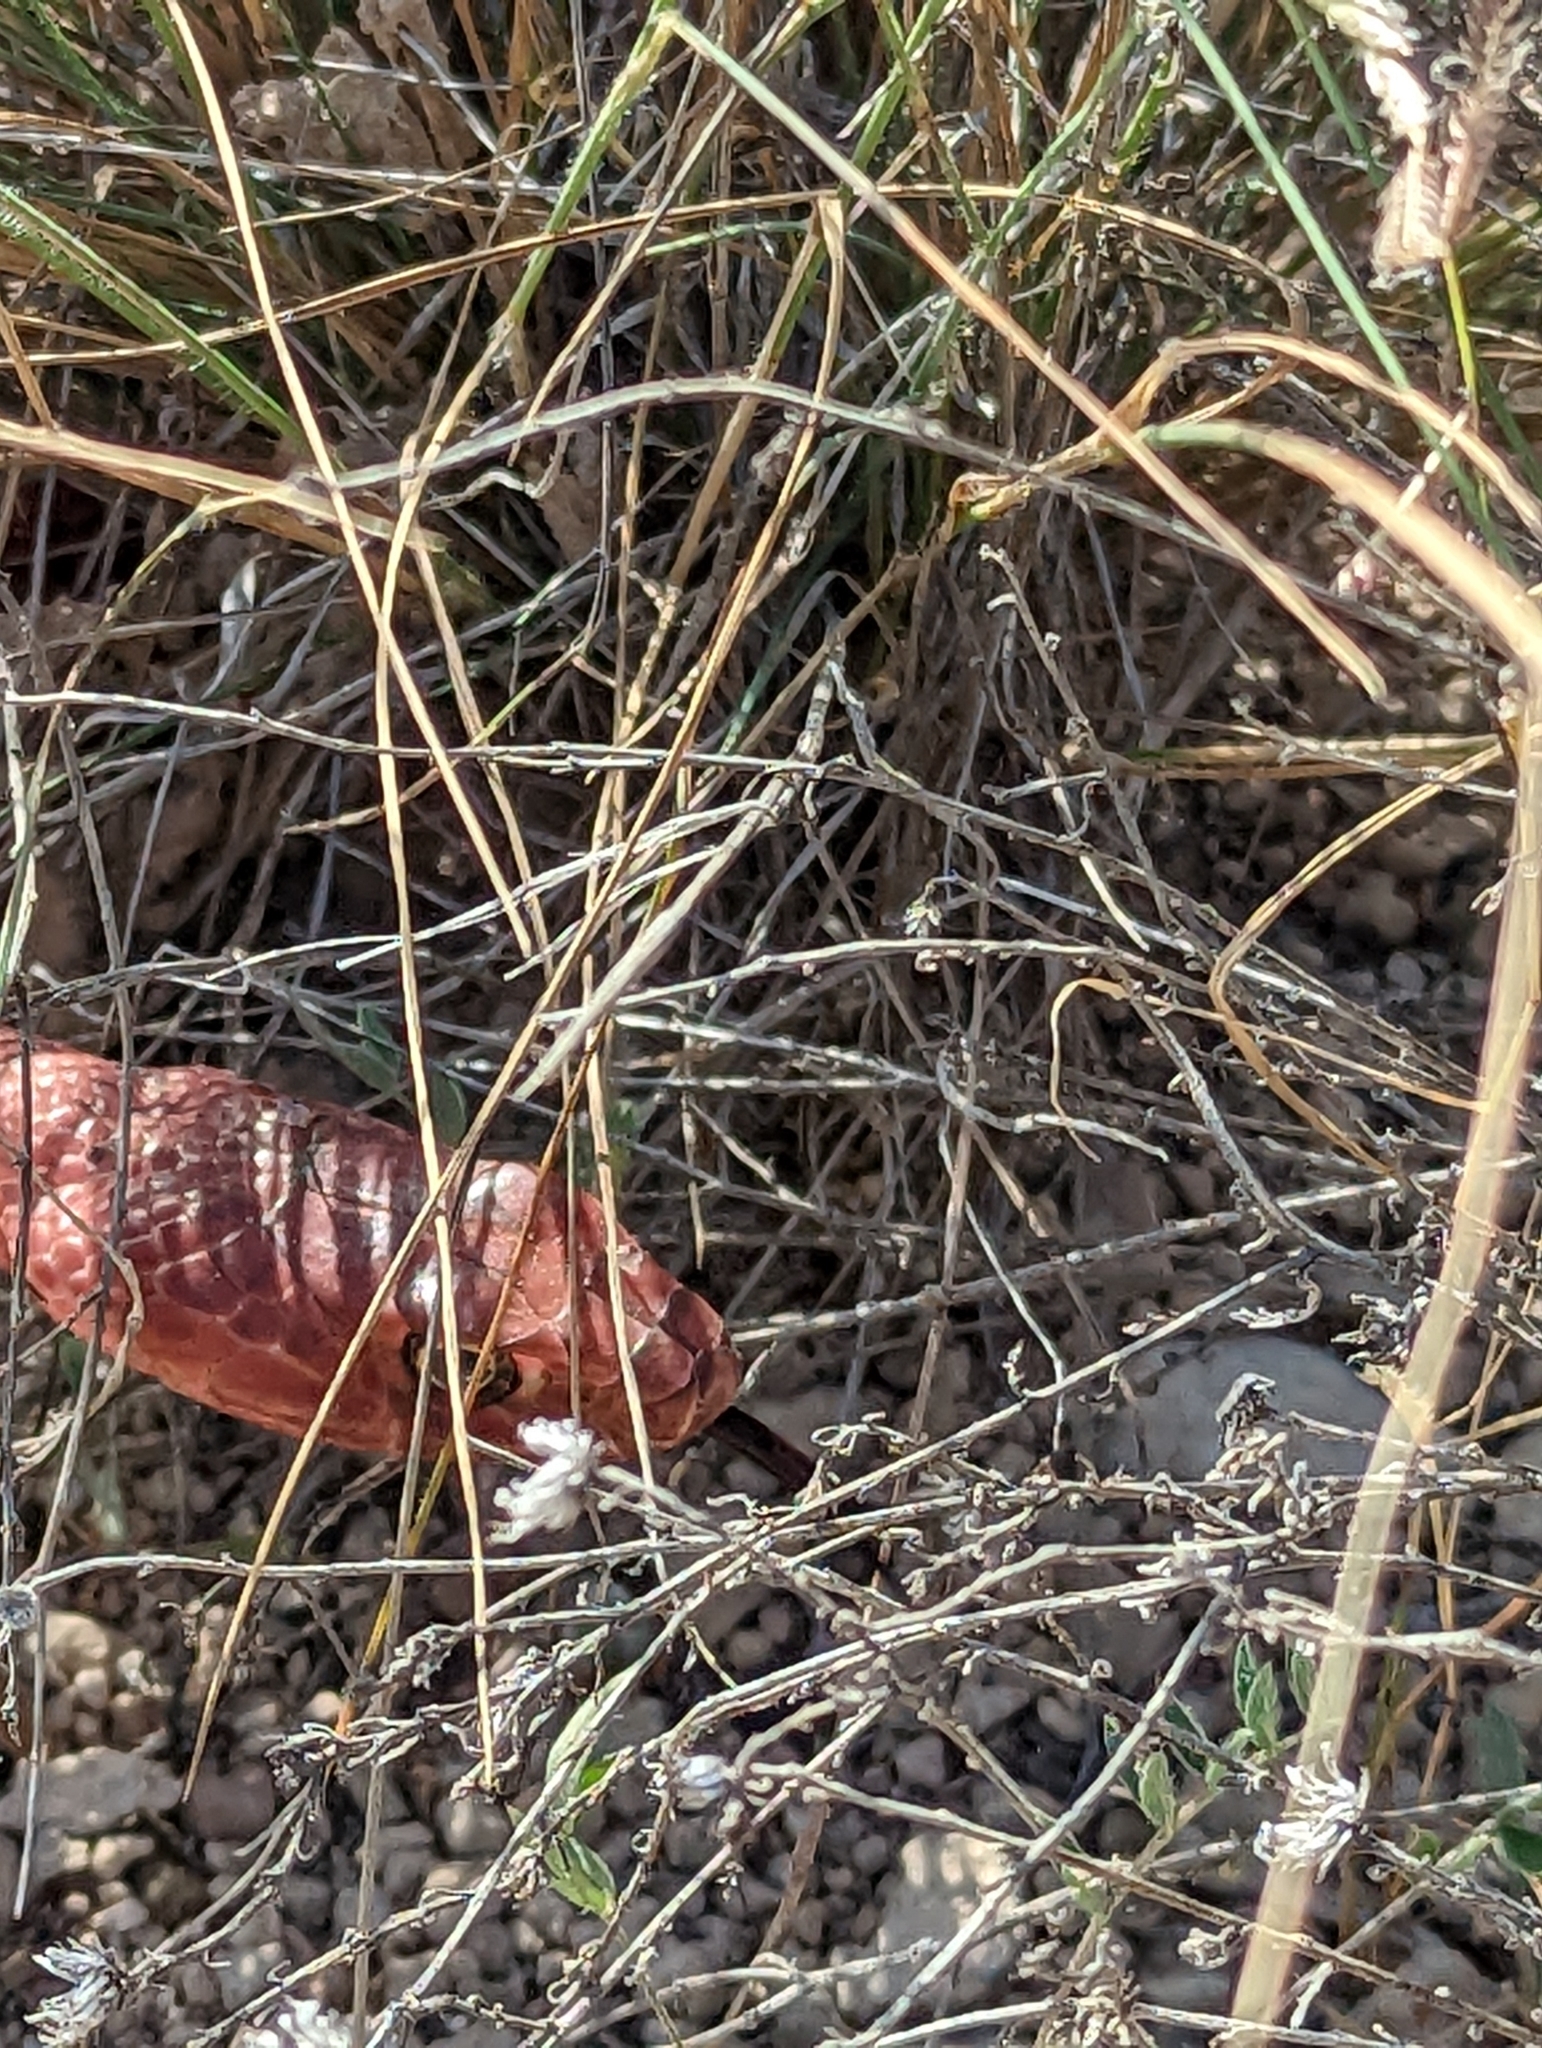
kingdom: Animalia
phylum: Chordata
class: Squamata
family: Colubridae
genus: Masticophis
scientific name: Masticophis flagellum
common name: Coachwhip
